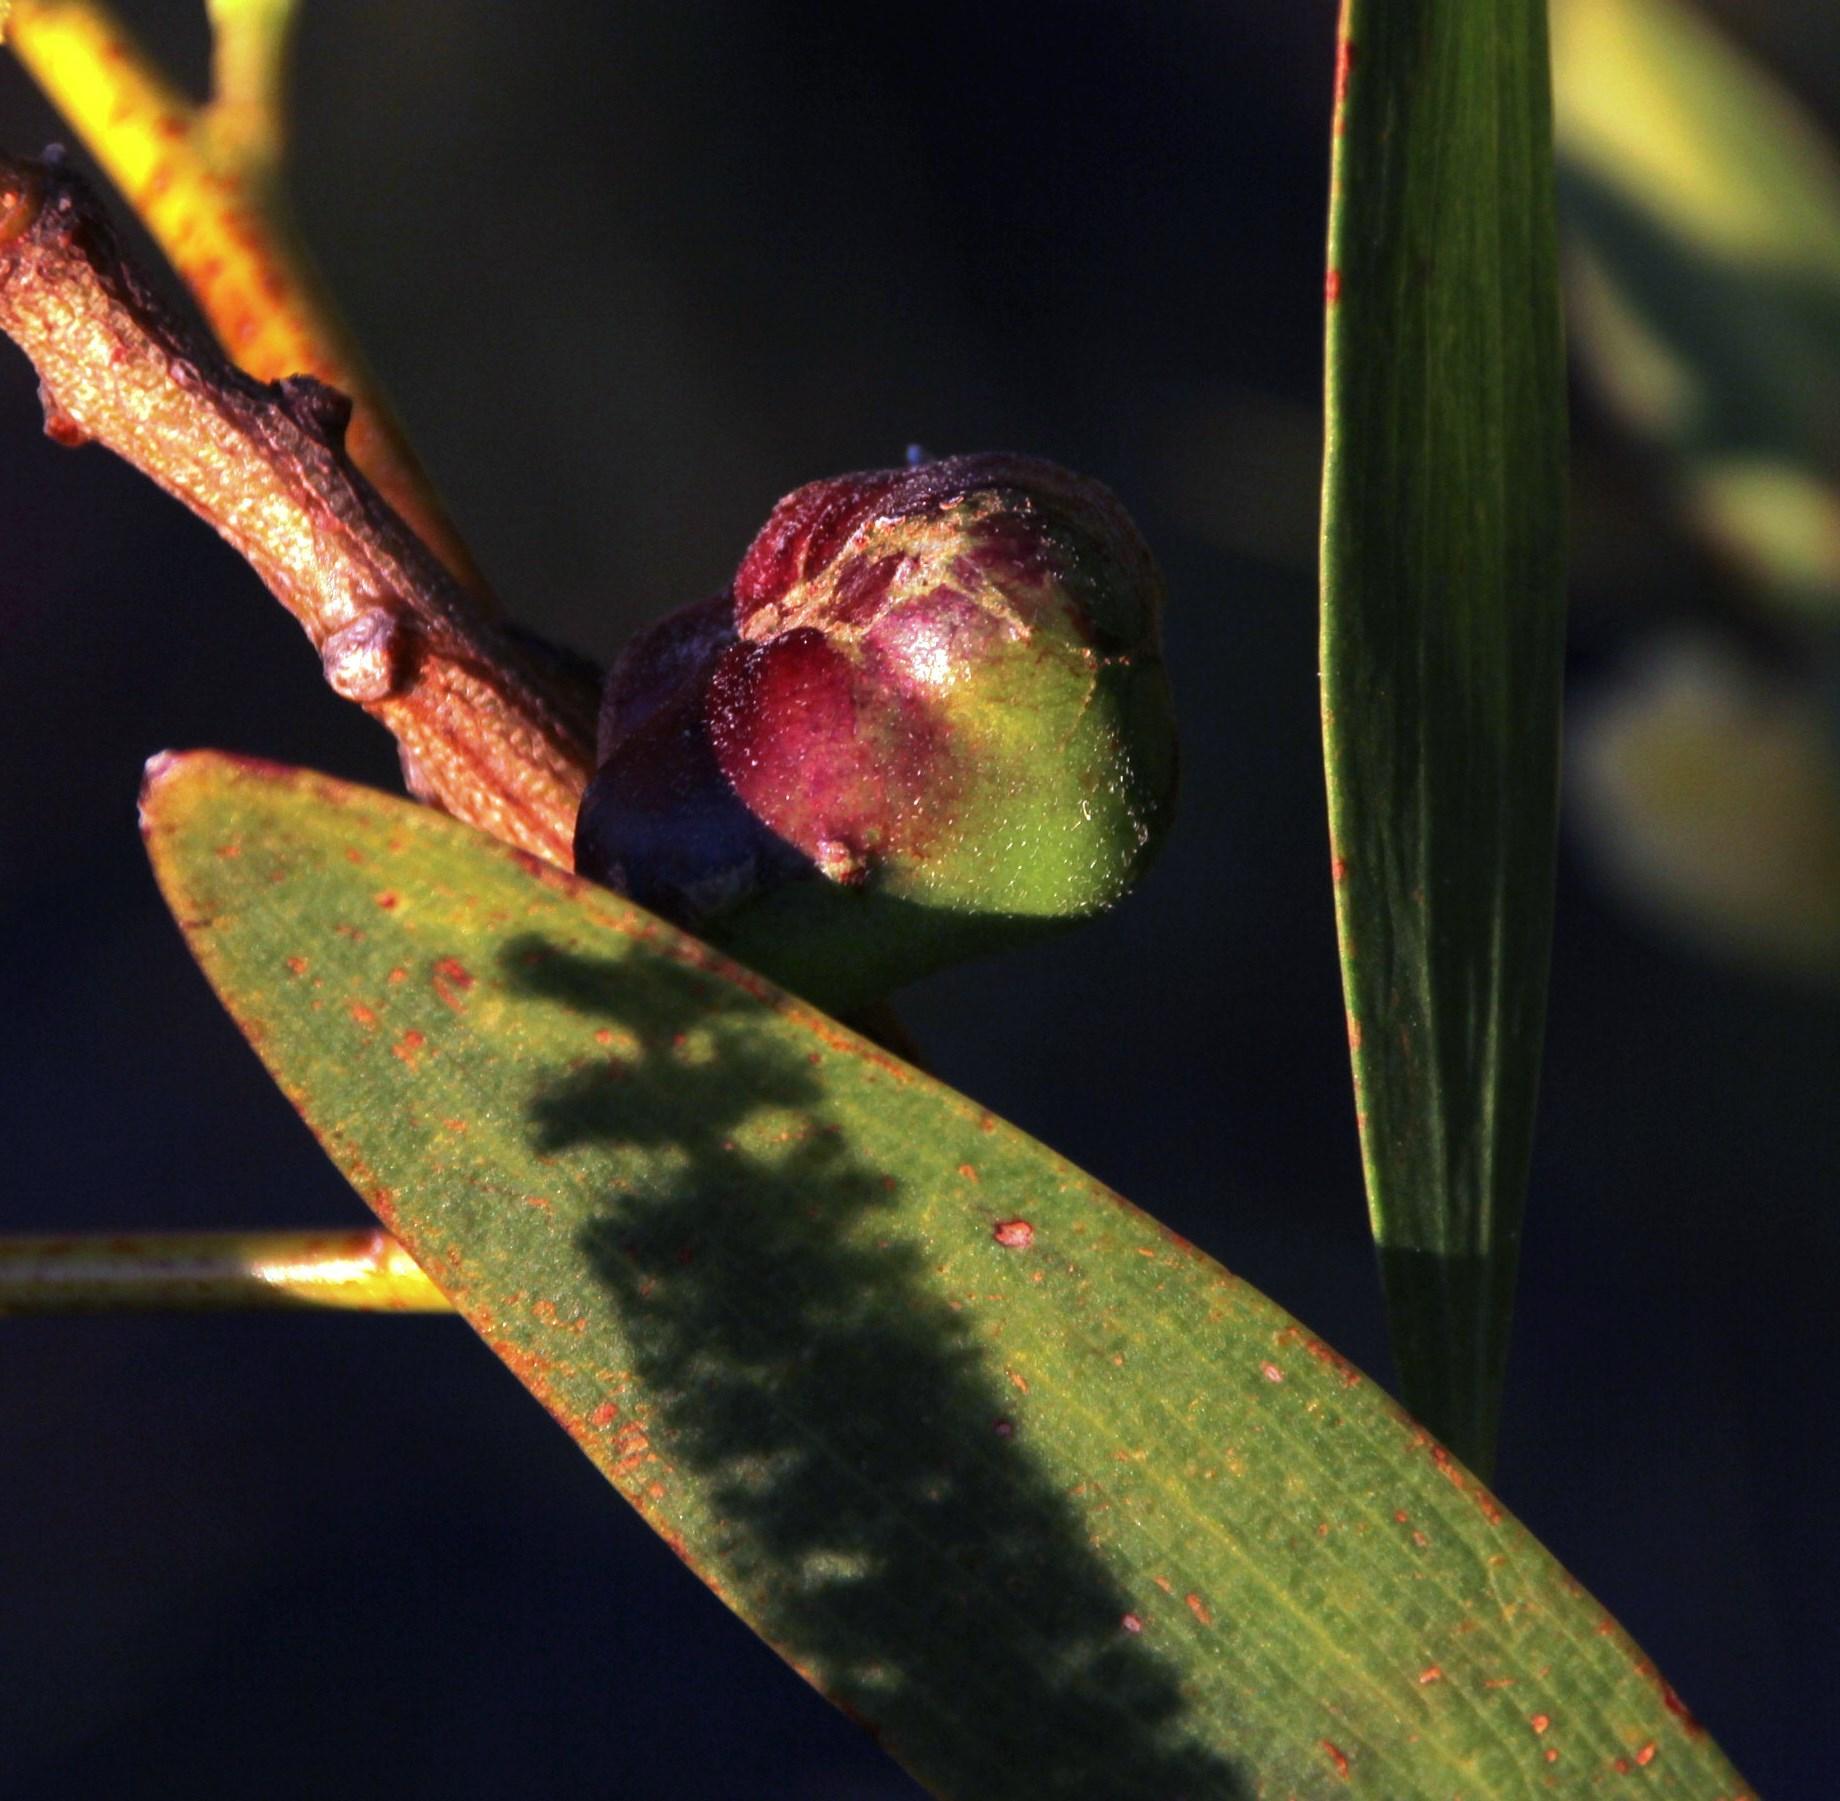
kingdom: Animalia
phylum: Arthropoda
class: Insecta
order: Hymenoptera
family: Pteromalidae
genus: Trichilogaster
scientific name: Trichilogaster acaciaelongifoliae
